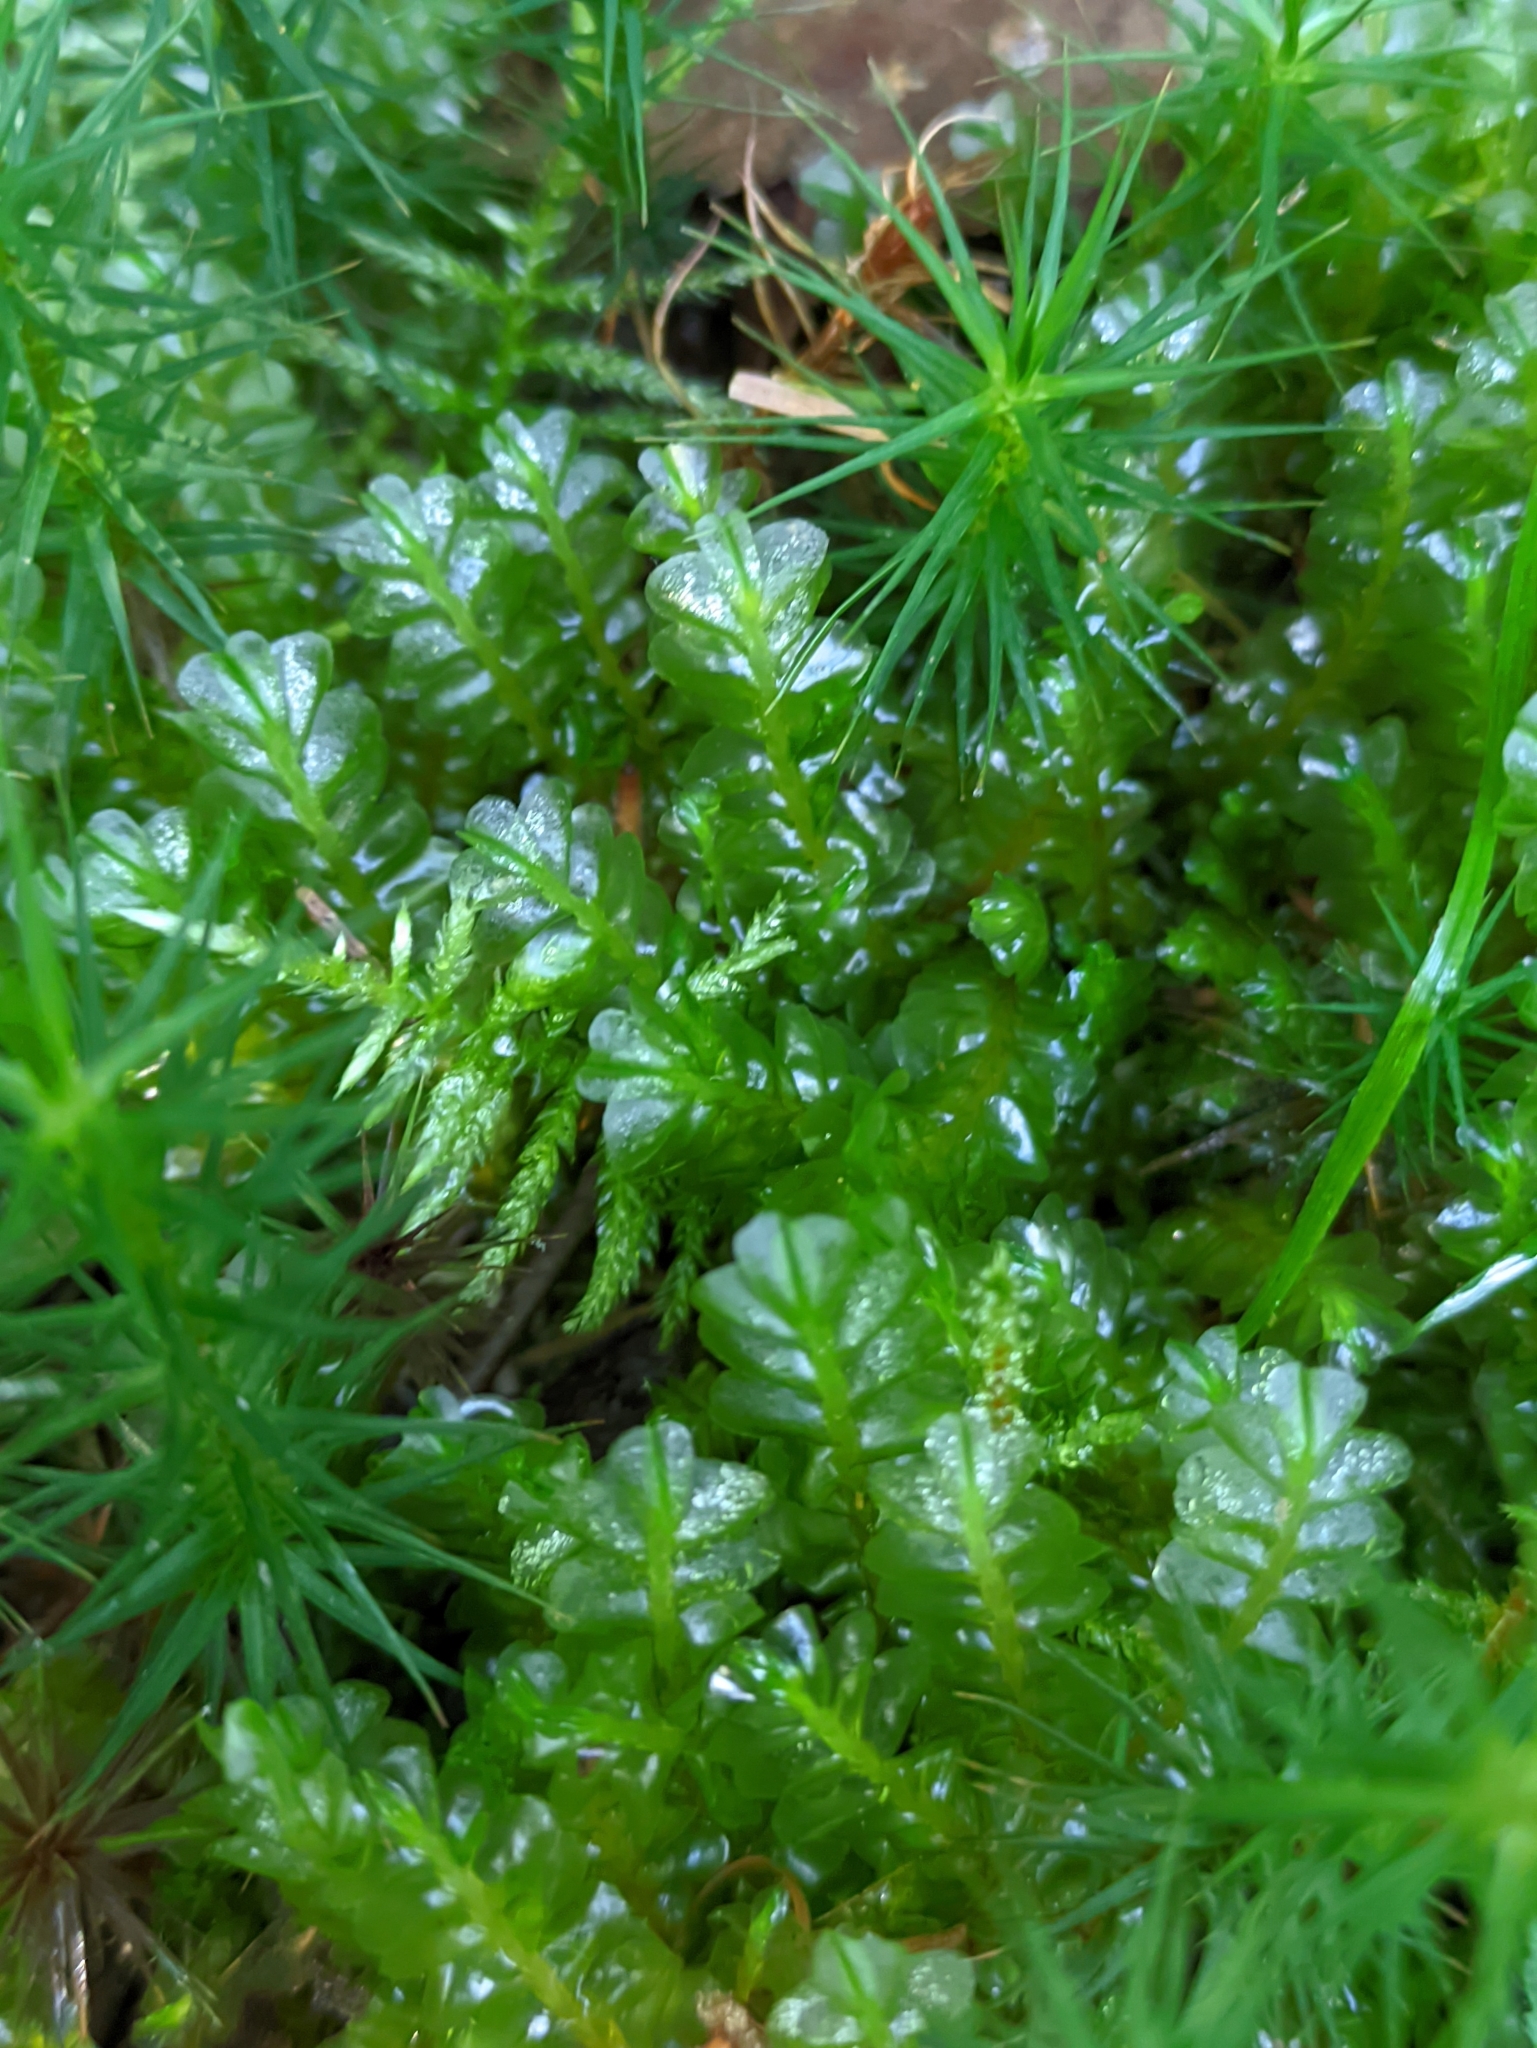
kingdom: Plantae
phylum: Marchantiophyta
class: Jungermanniopsida
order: Jungermanniales
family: Plagiochilaceae
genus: Plagiochila
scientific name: Plagiochila asplenioides
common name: Greater featherwort
